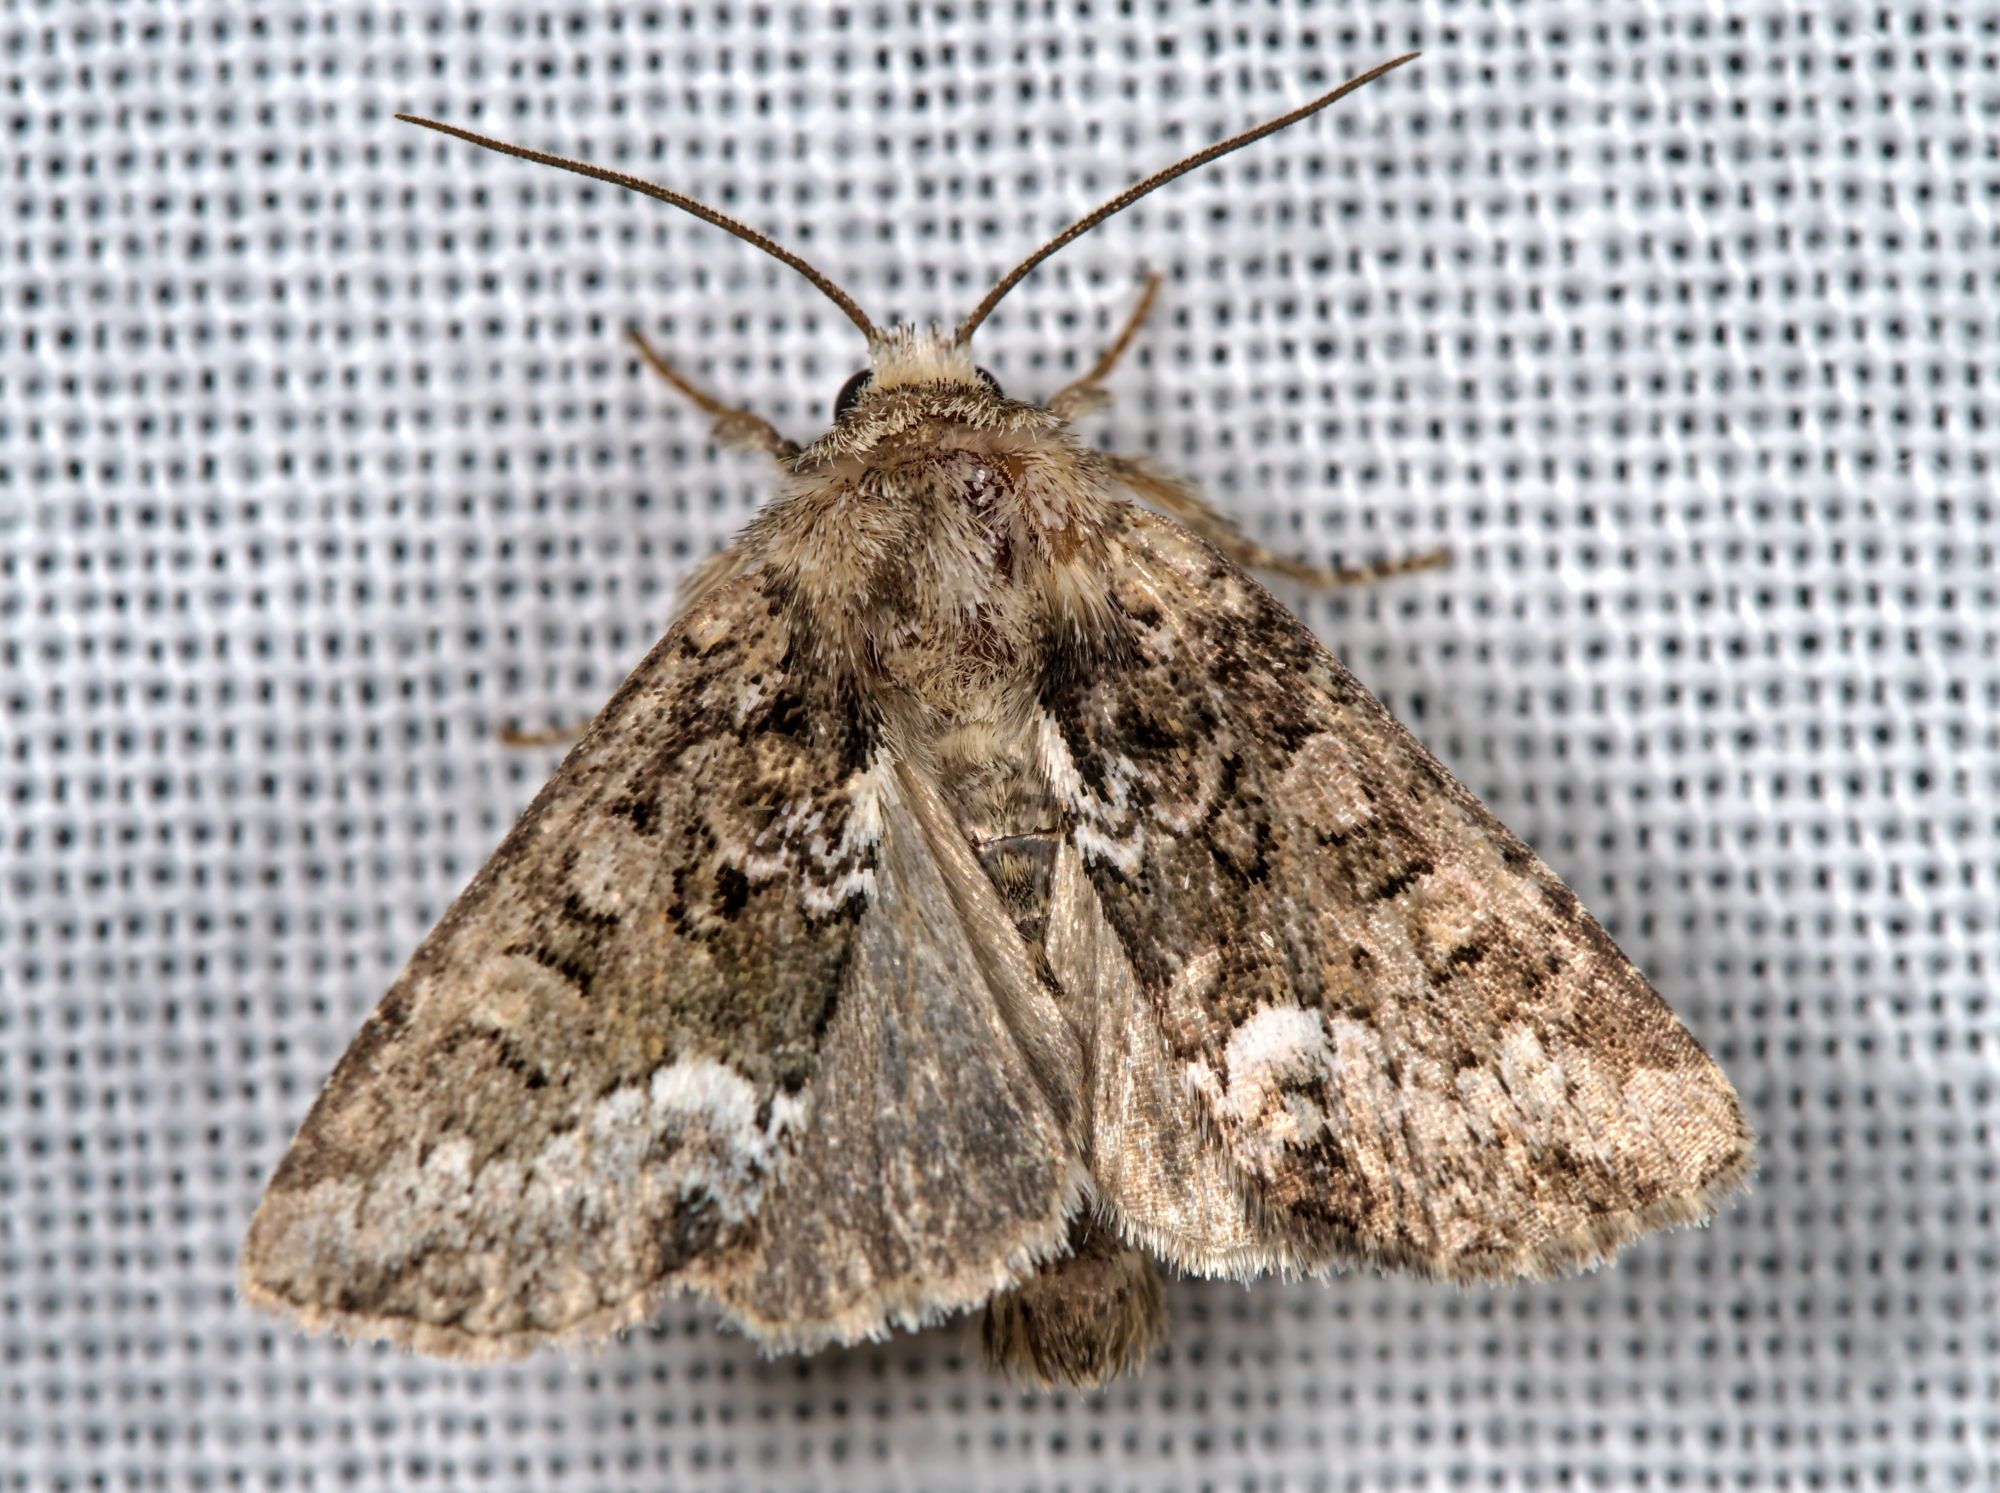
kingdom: Animalia
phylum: Arthropoda
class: Insecta
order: Lepidoptera
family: Noctuidae
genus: Oligia
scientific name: Oligia strigilis
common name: Marbled minor
